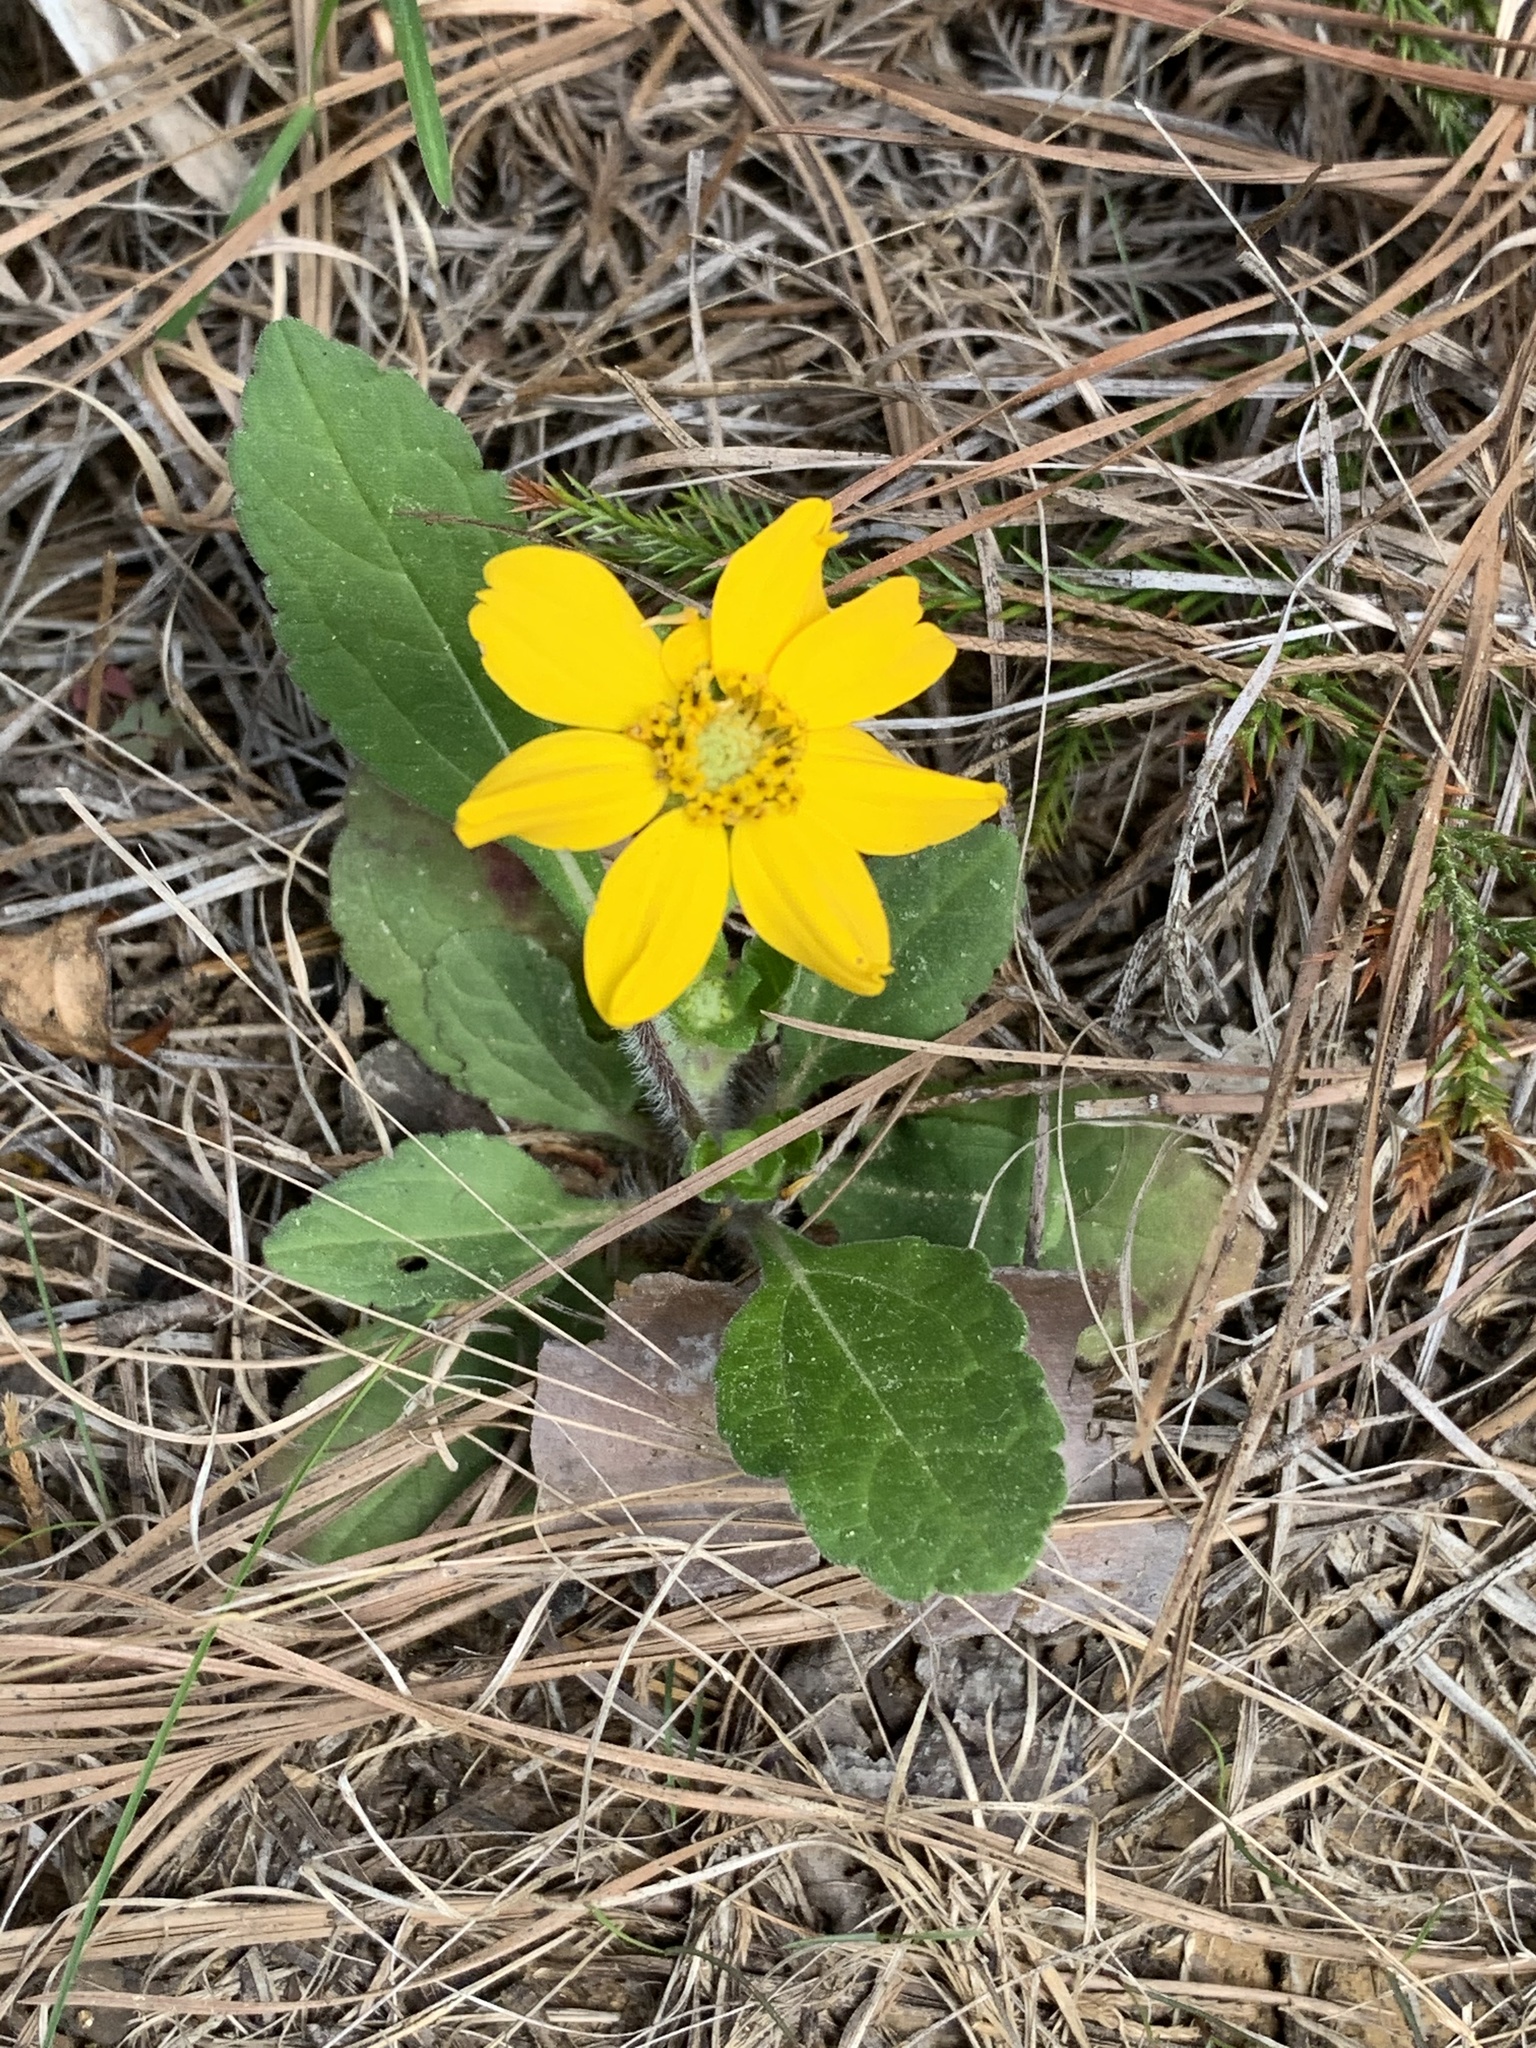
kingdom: Plantae
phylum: Tracheophyta
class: Magnoliopsida
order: Asterales
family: Asteraceae
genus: Chrysogonum
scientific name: Chrysogonum virginianum
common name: Golden-knee
